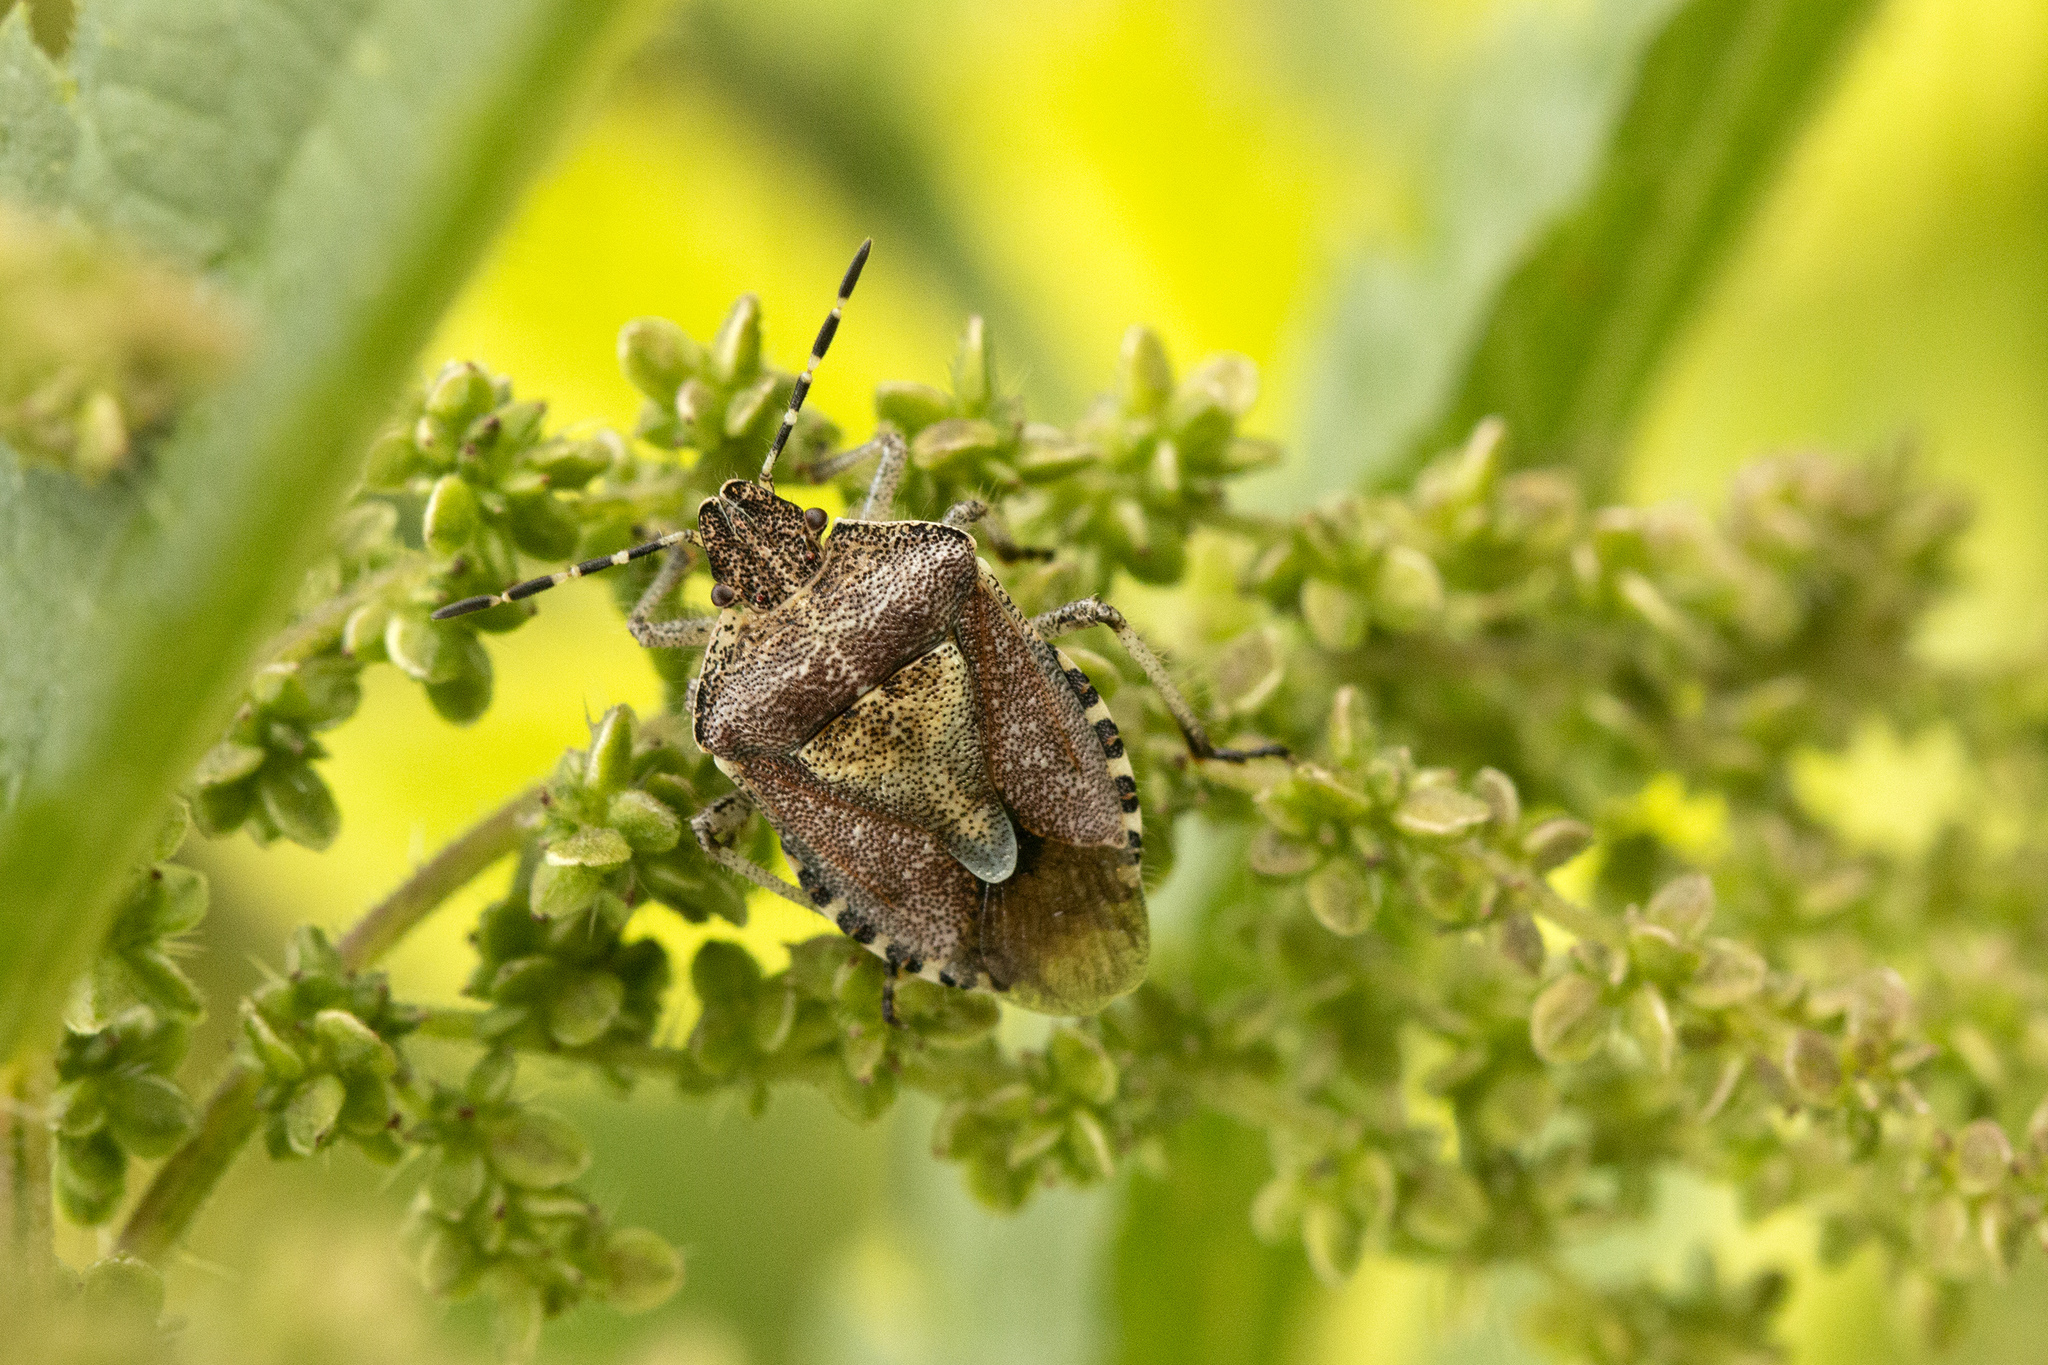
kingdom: Animalia
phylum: Arthropoda
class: Insecta
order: Hemiptera
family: Pentatomidae
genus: Dolycoris
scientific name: Dolycoris baccarum
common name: Sloe bug
